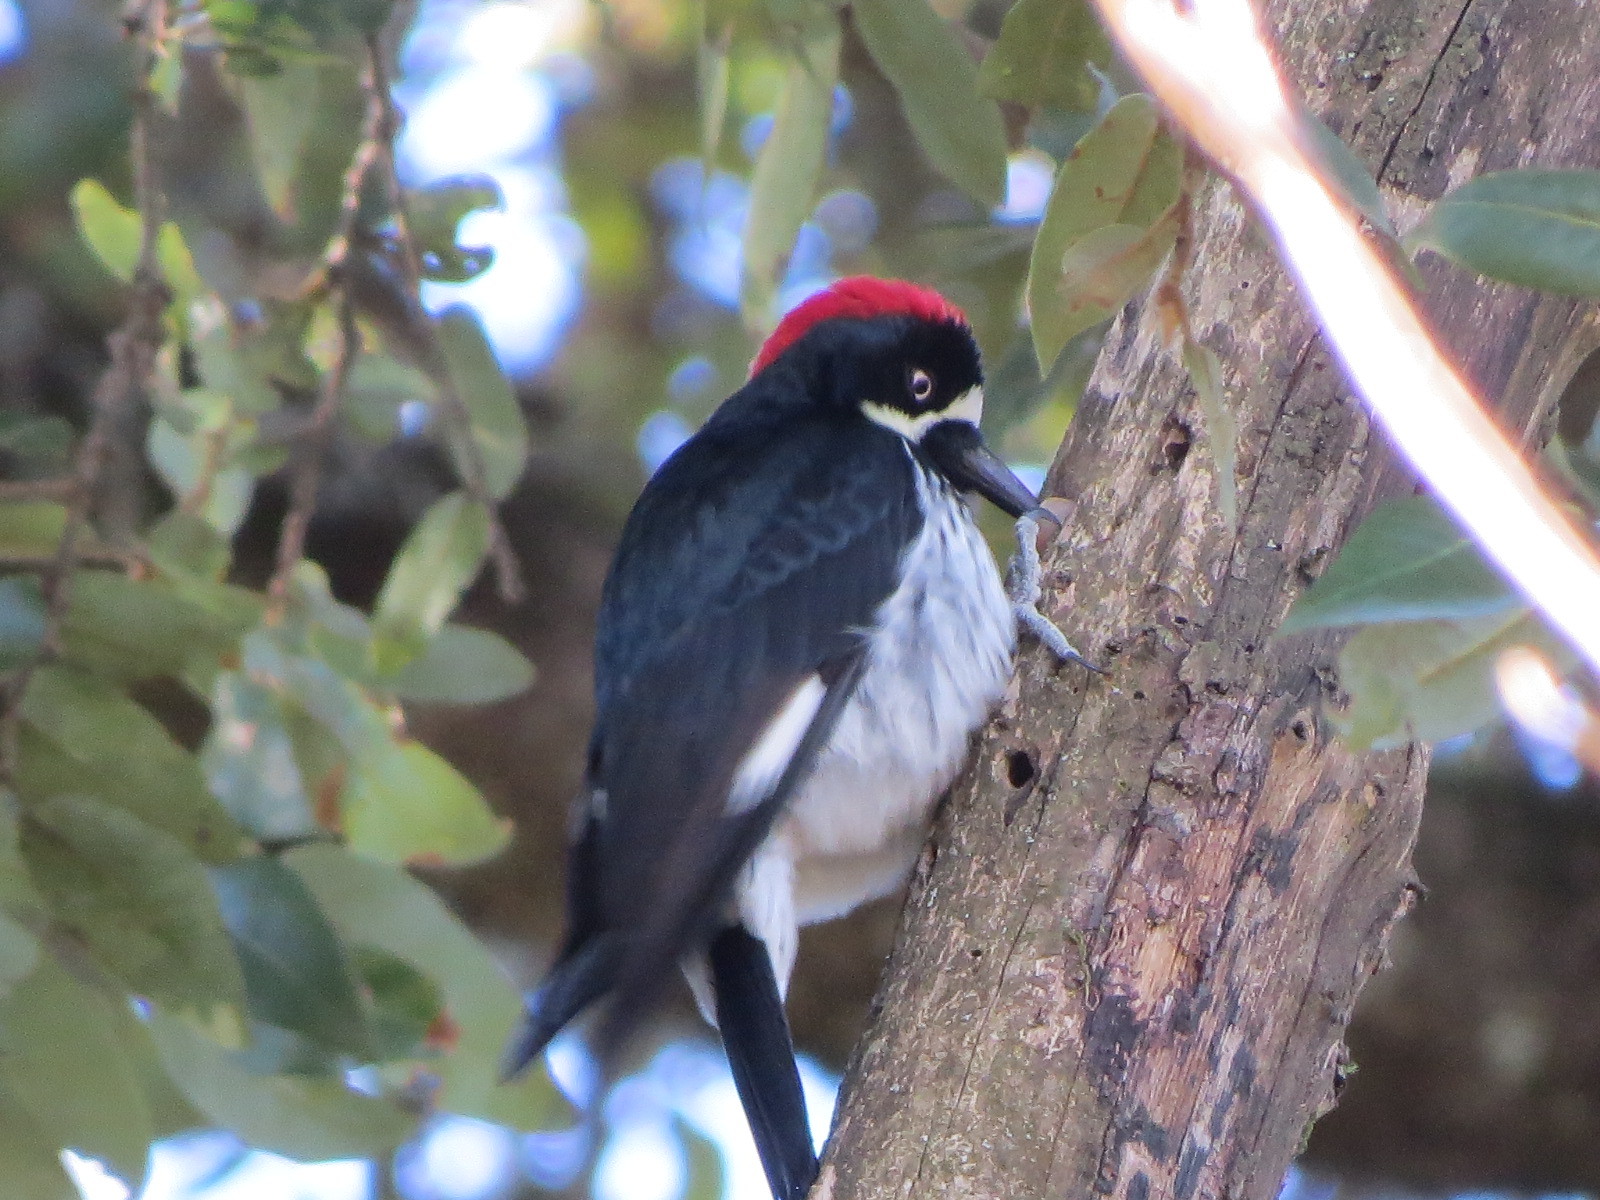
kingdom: Animalia
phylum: Chordata
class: Aves
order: Piciformes
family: Picidae
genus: Melanerpes
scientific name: Melanerpes formicivorus
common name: Acorn woodpecker
